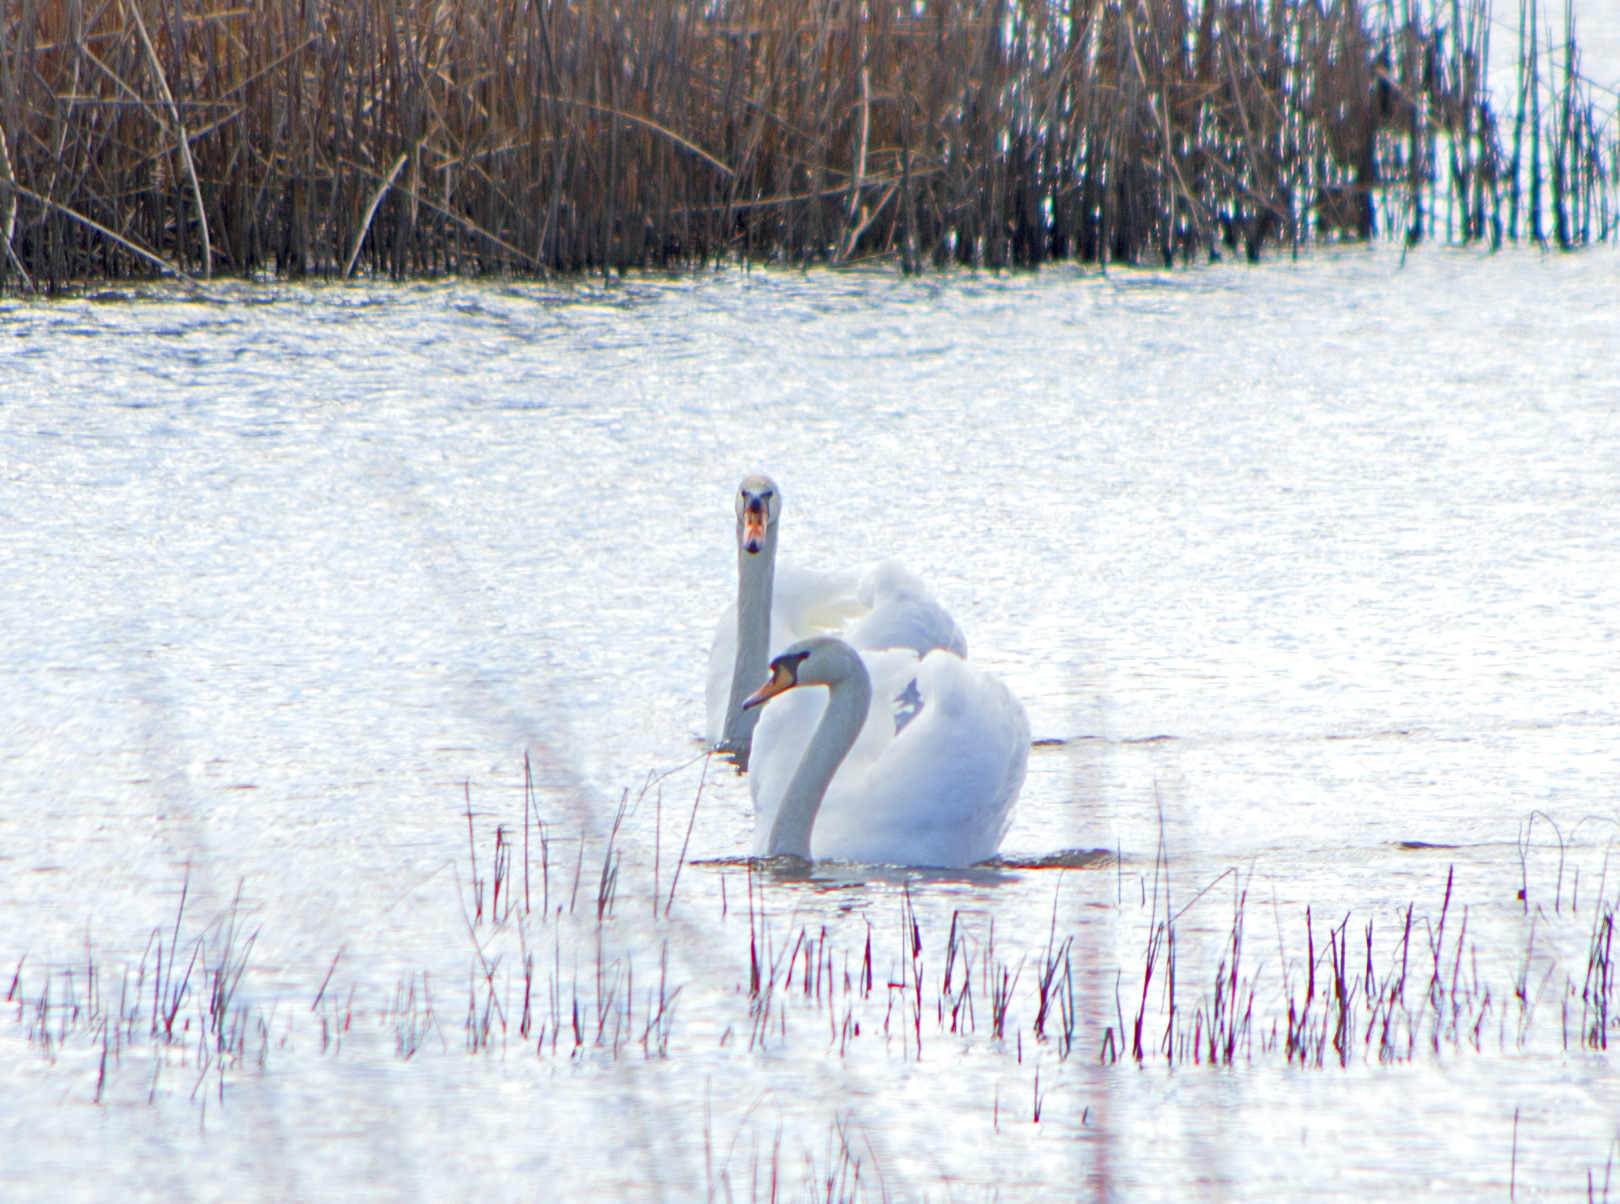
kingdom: Animalia
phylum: Chordata
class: Aves
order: Anseriformes
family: Anatidae
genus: Cygnus
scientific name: Cygnus olor
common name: Mute swan
